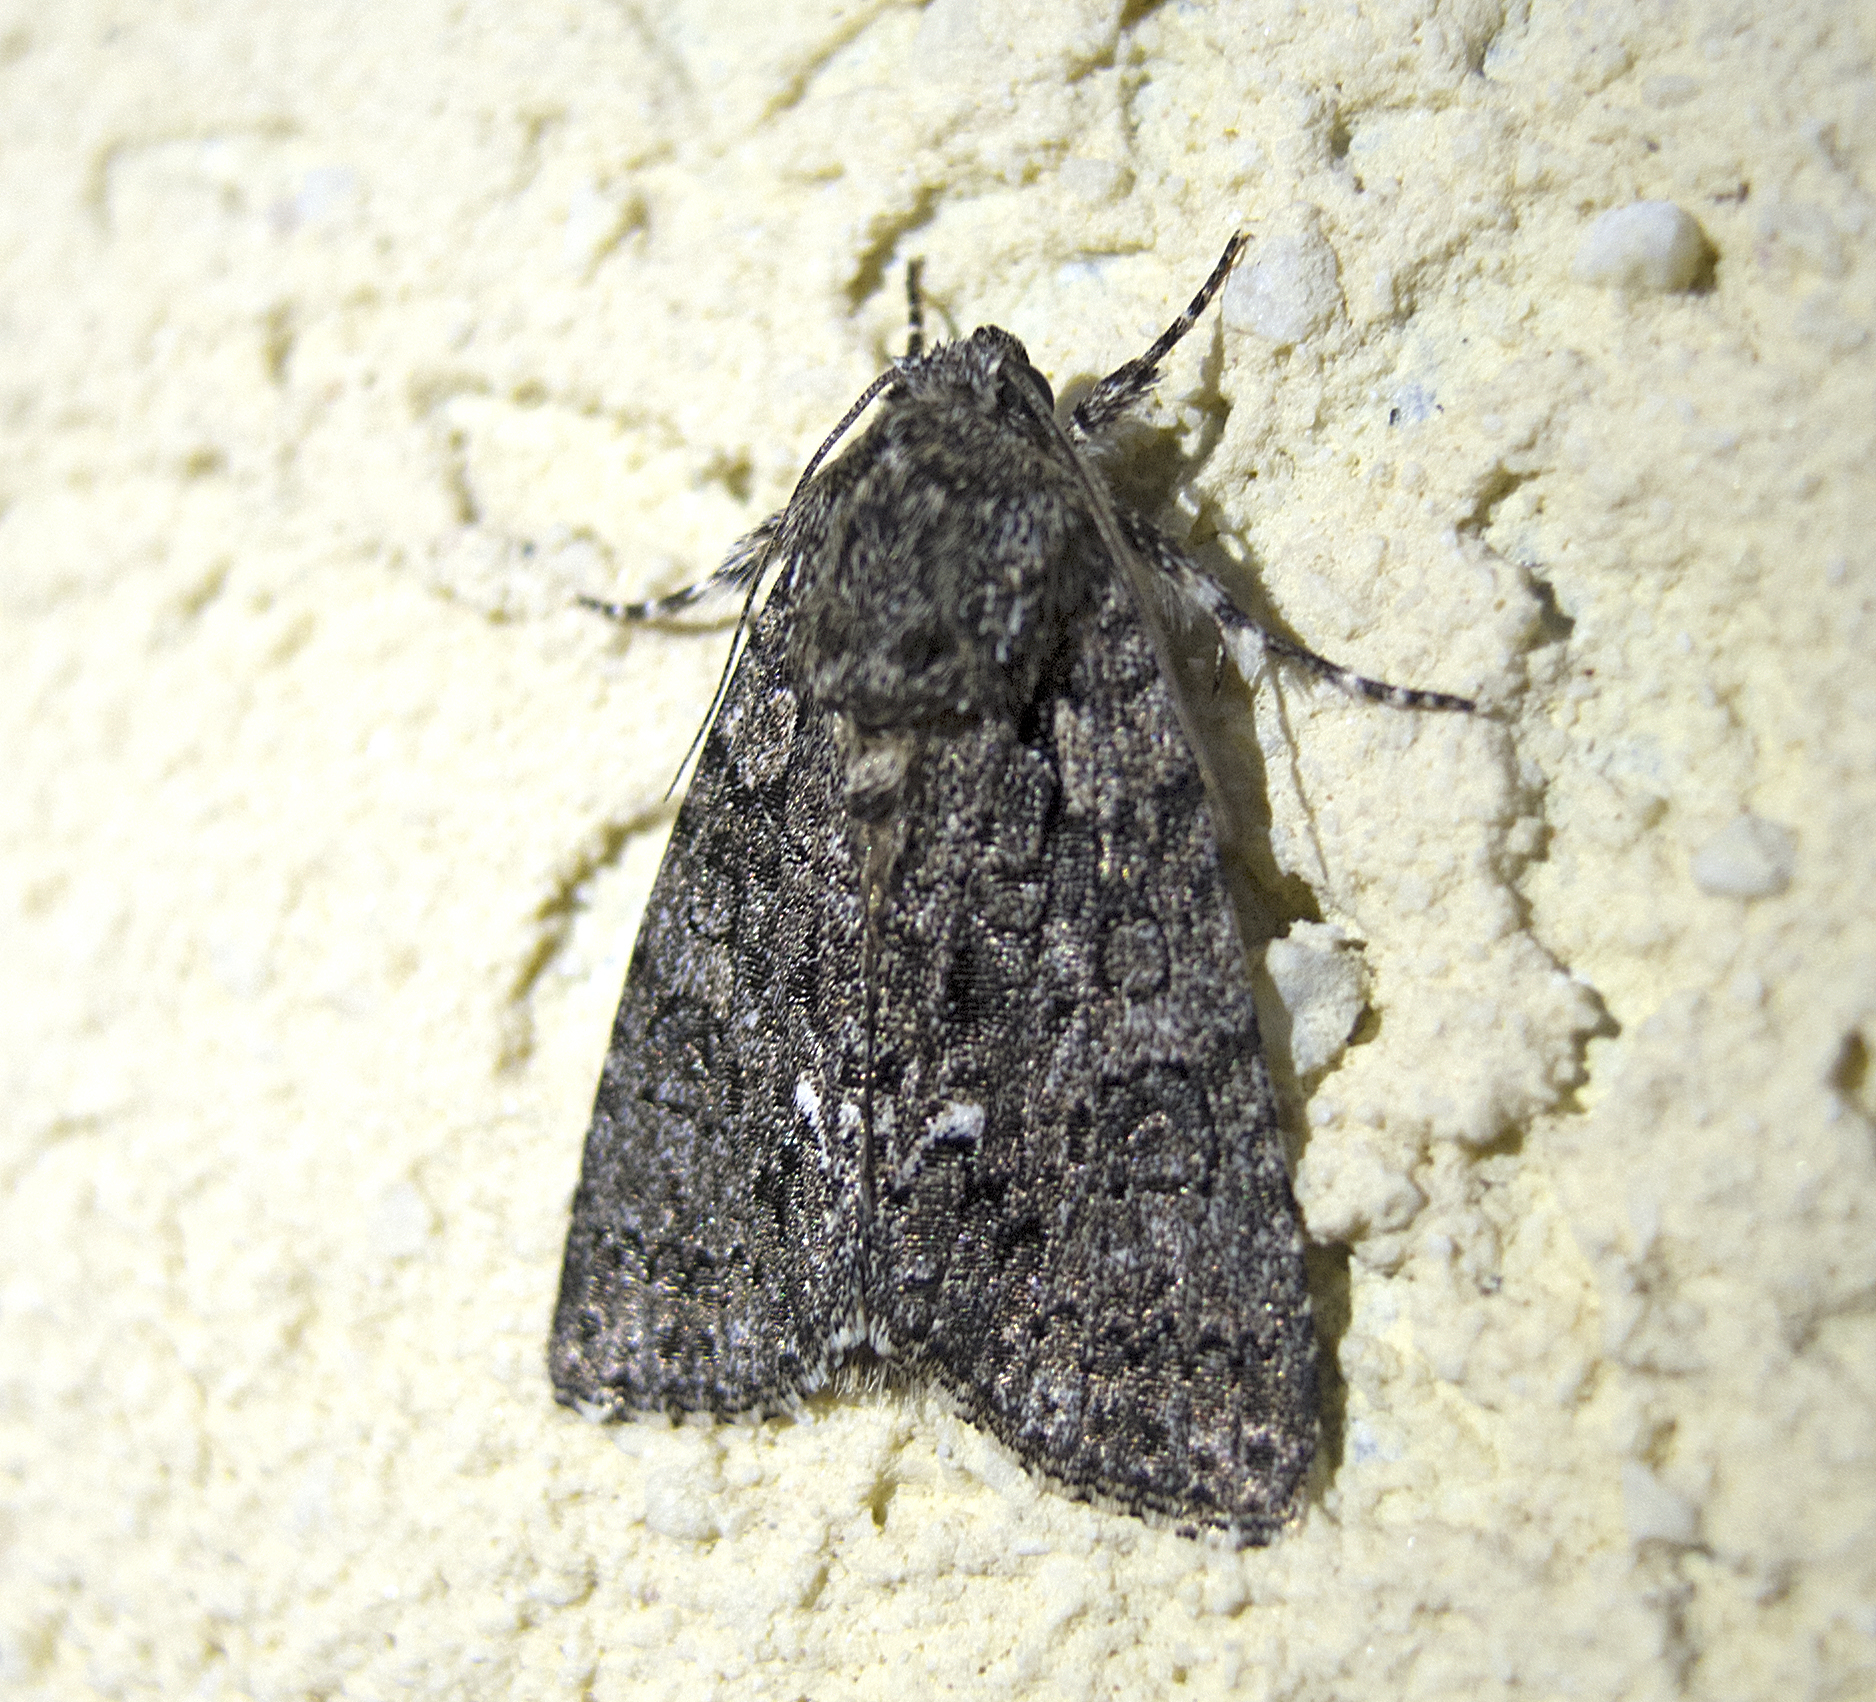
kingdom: Animalia
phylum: Arthropoda
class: Insecta
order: Lepidoptera
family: Noctuidae
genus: Acronicta
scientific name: Acronicta rumicis
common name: Knot grass
